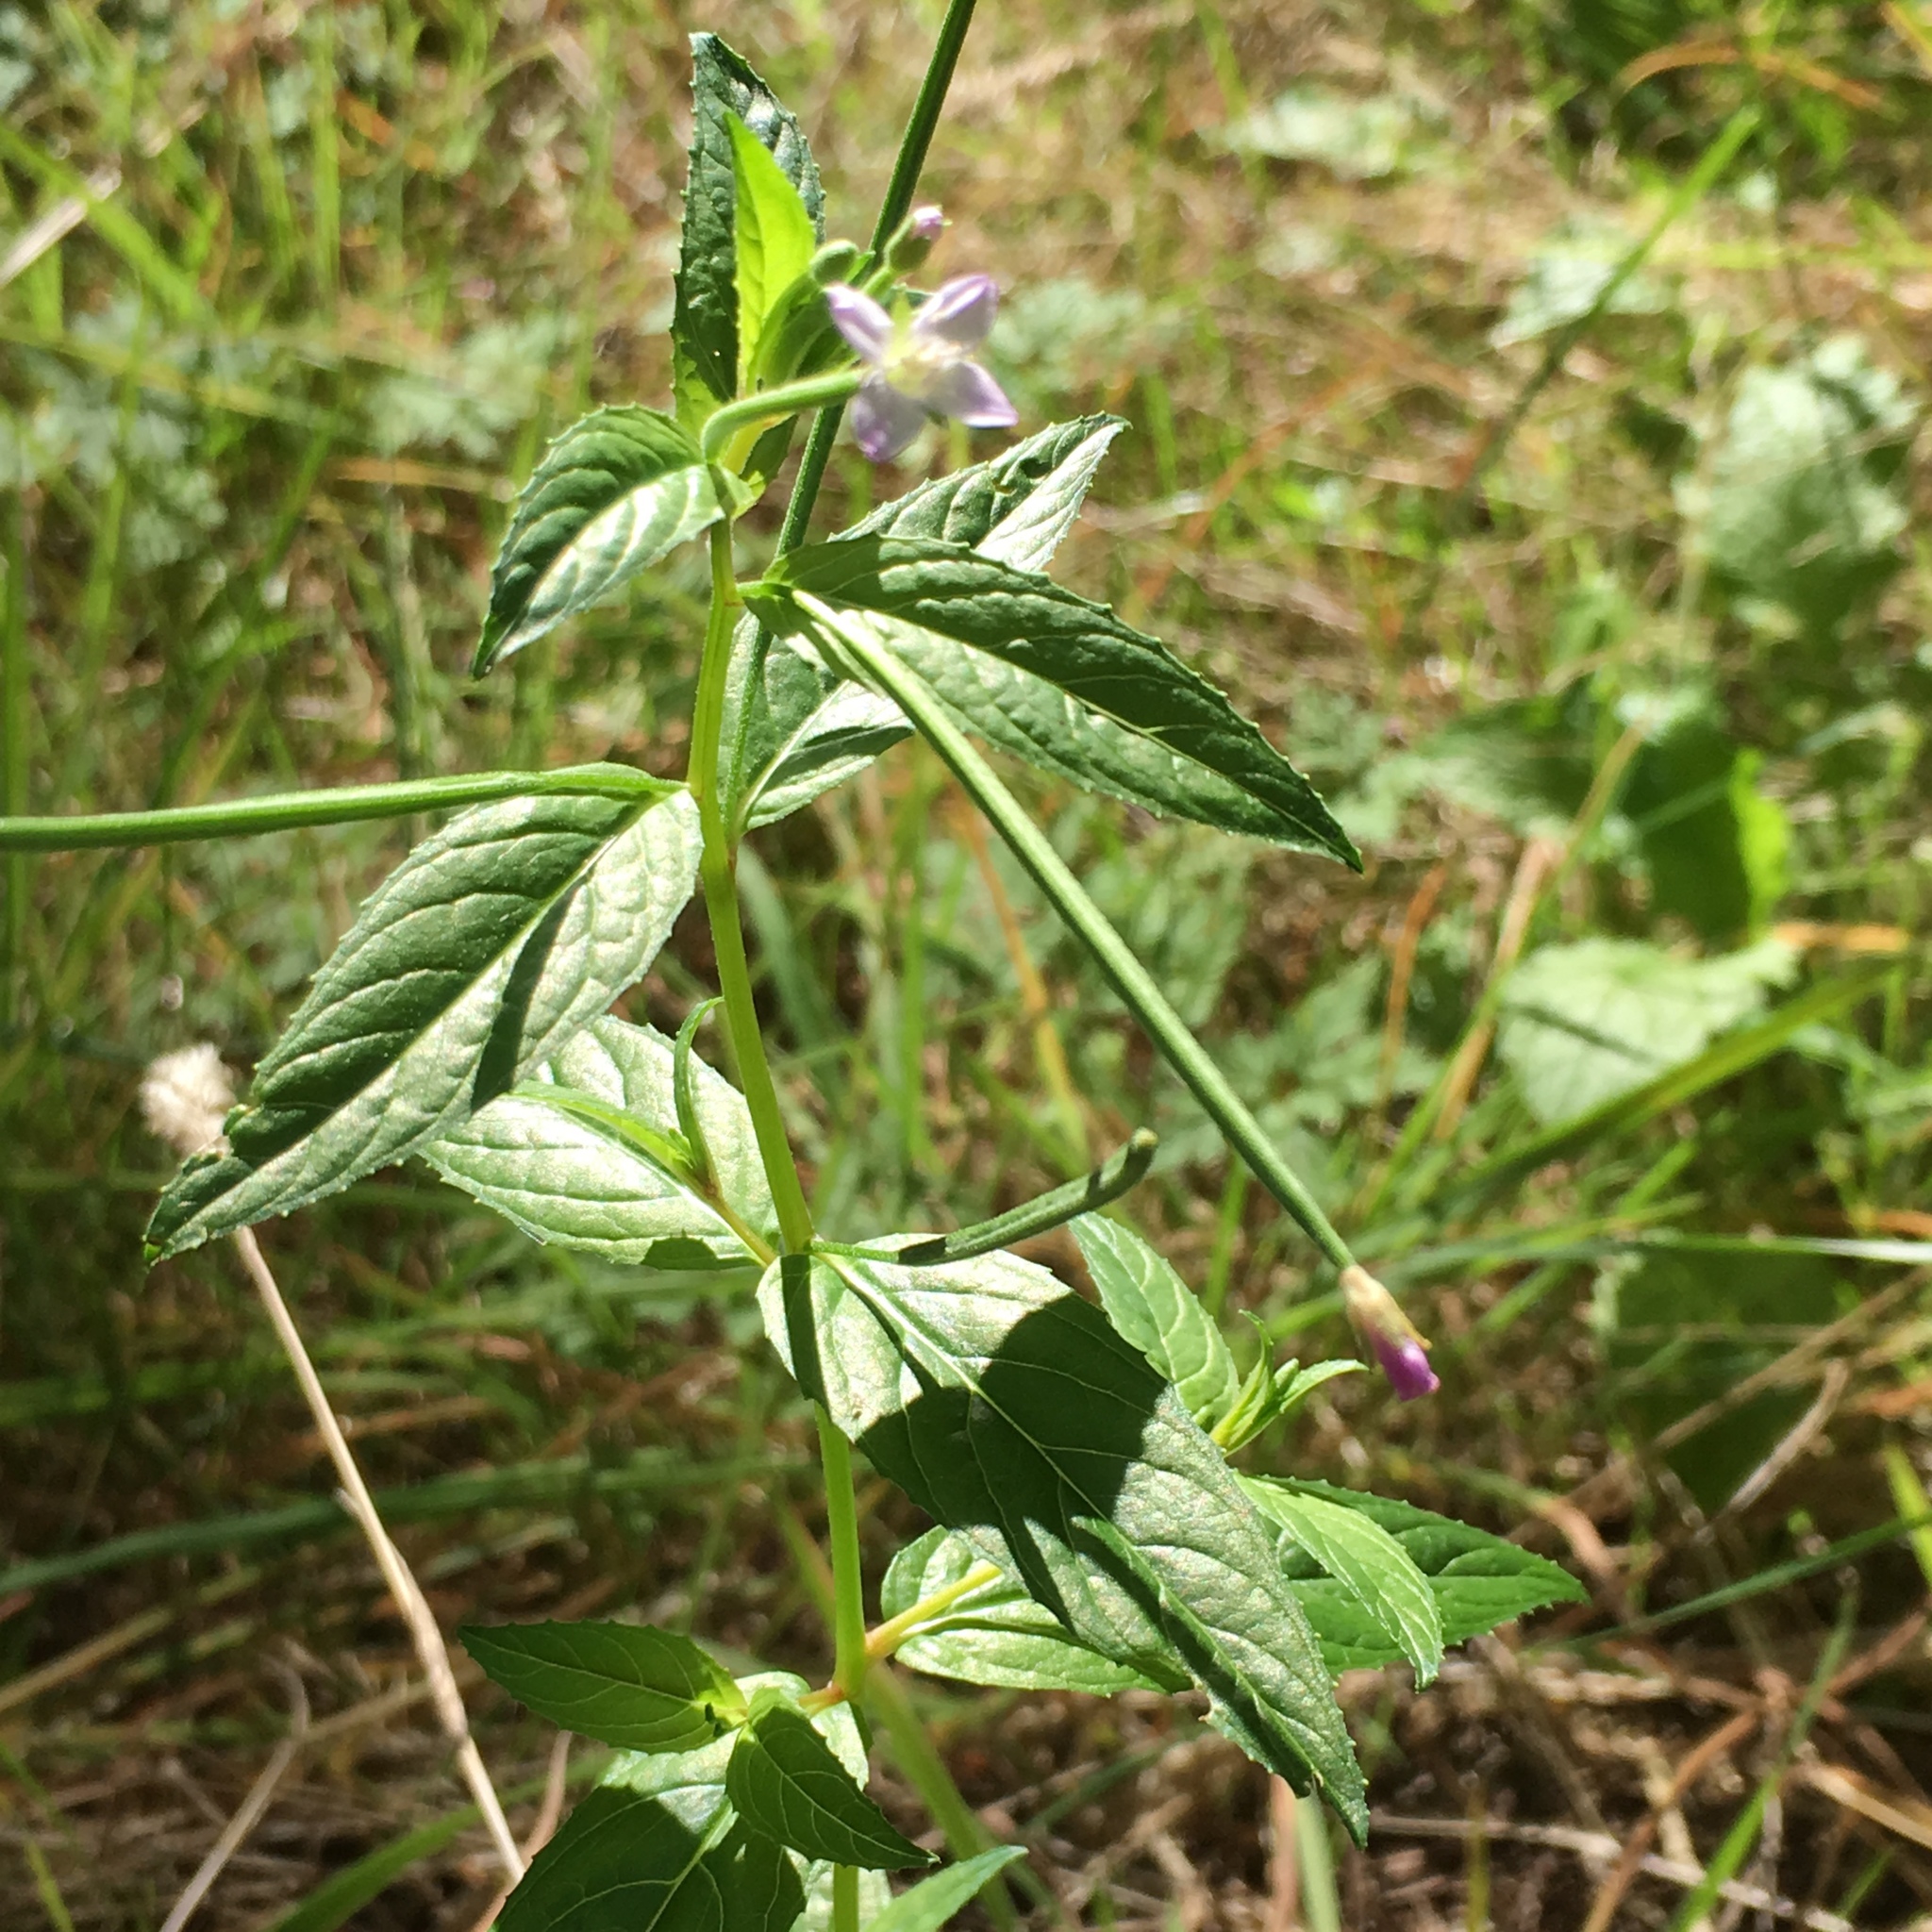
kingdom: Plantae
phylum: Tracheophyta
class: Magnoliopsida
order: Myrtales
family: Onagraceae
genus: Epilobium
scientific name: Epilobium ciliatum
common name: American willowherb
